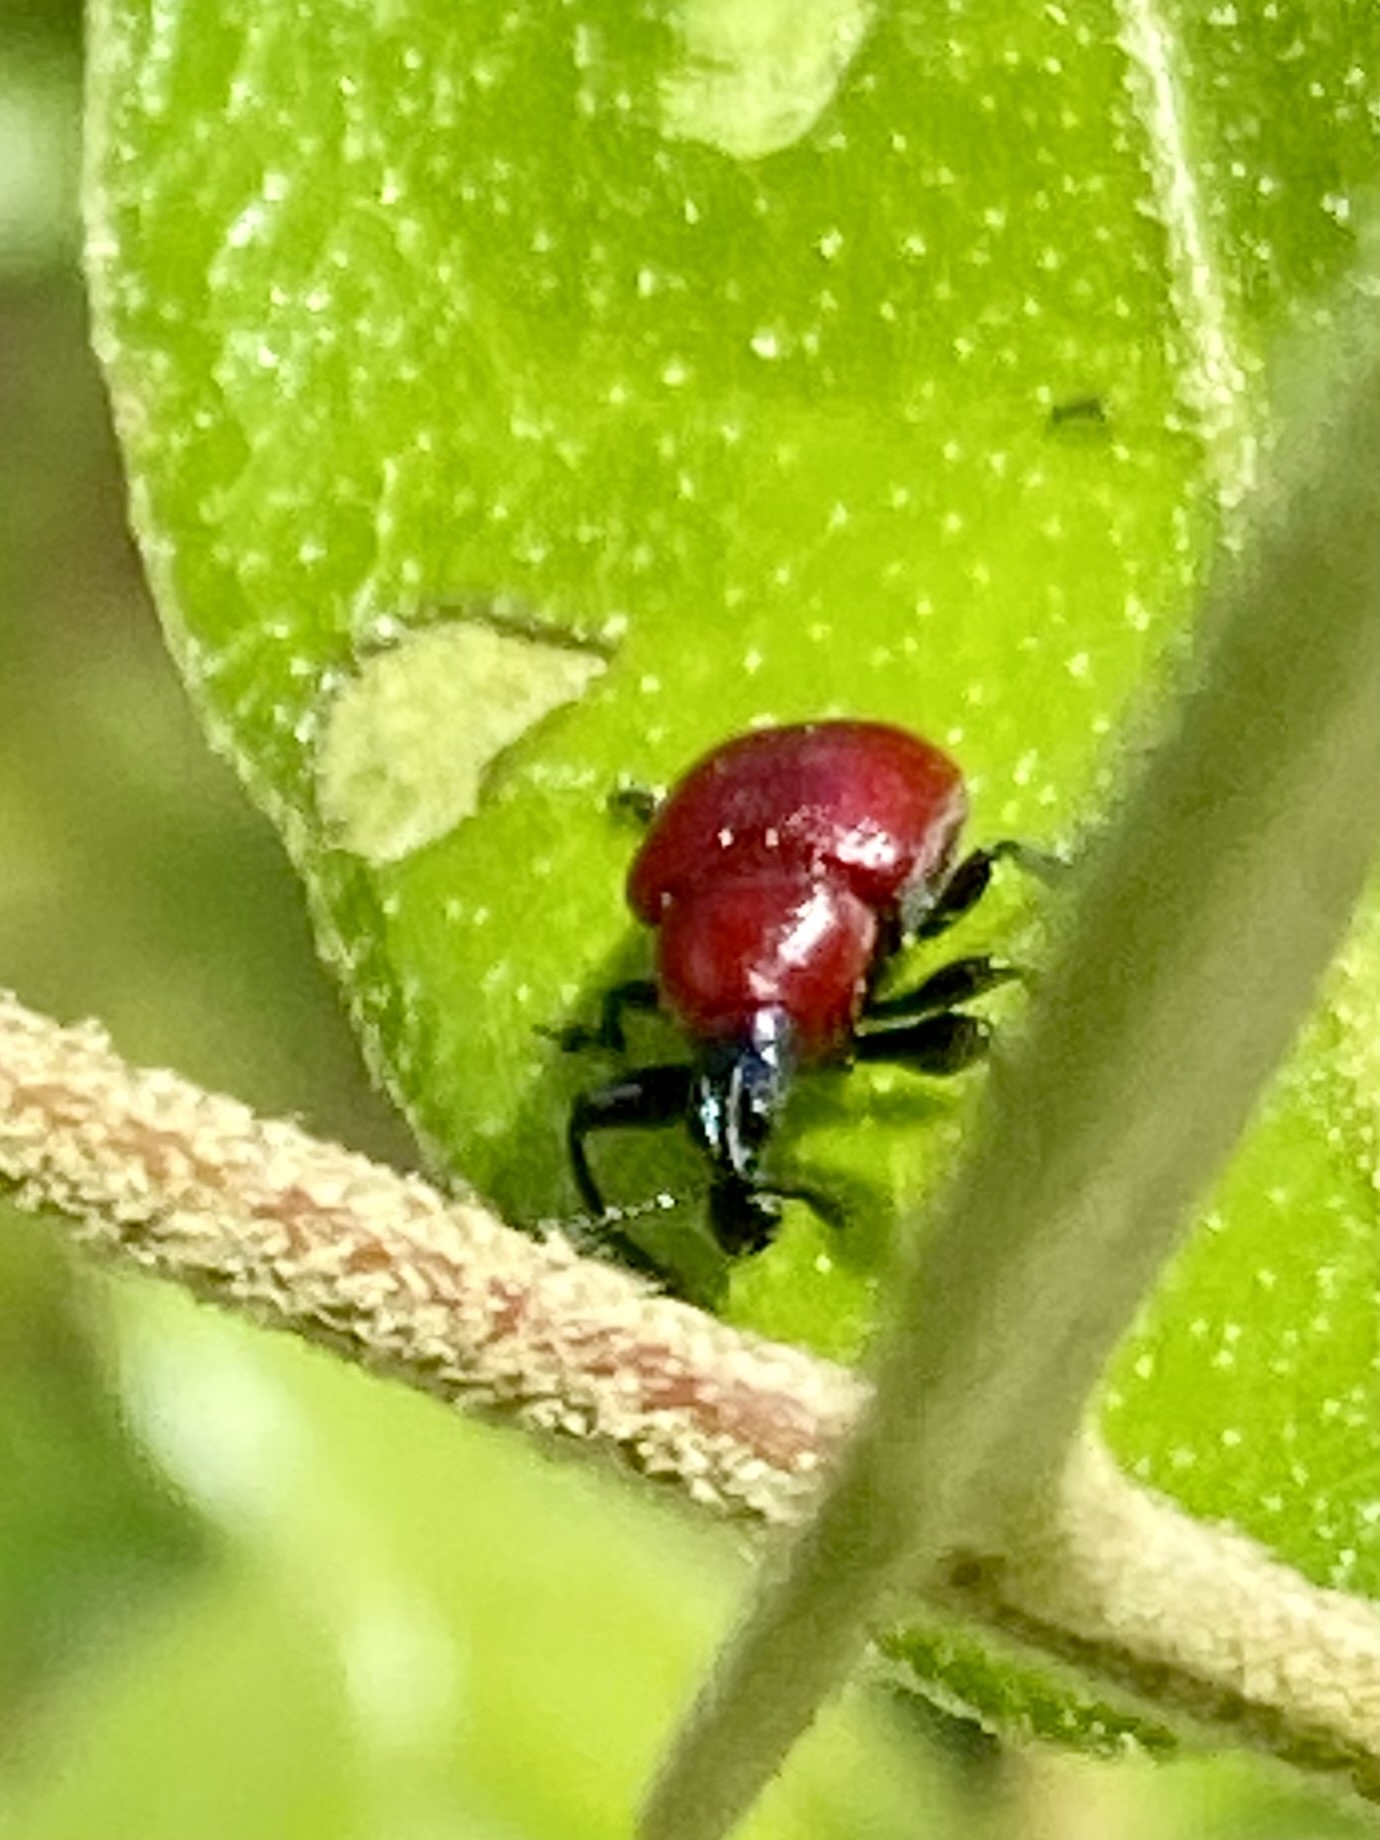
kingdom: Animalia
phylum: Arthropoda
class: Insecta
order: Coleoptera
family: Attelabidae
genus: Homoeolabus
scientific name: Homoeolabus analis
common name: Oak leaf rolling weevil
